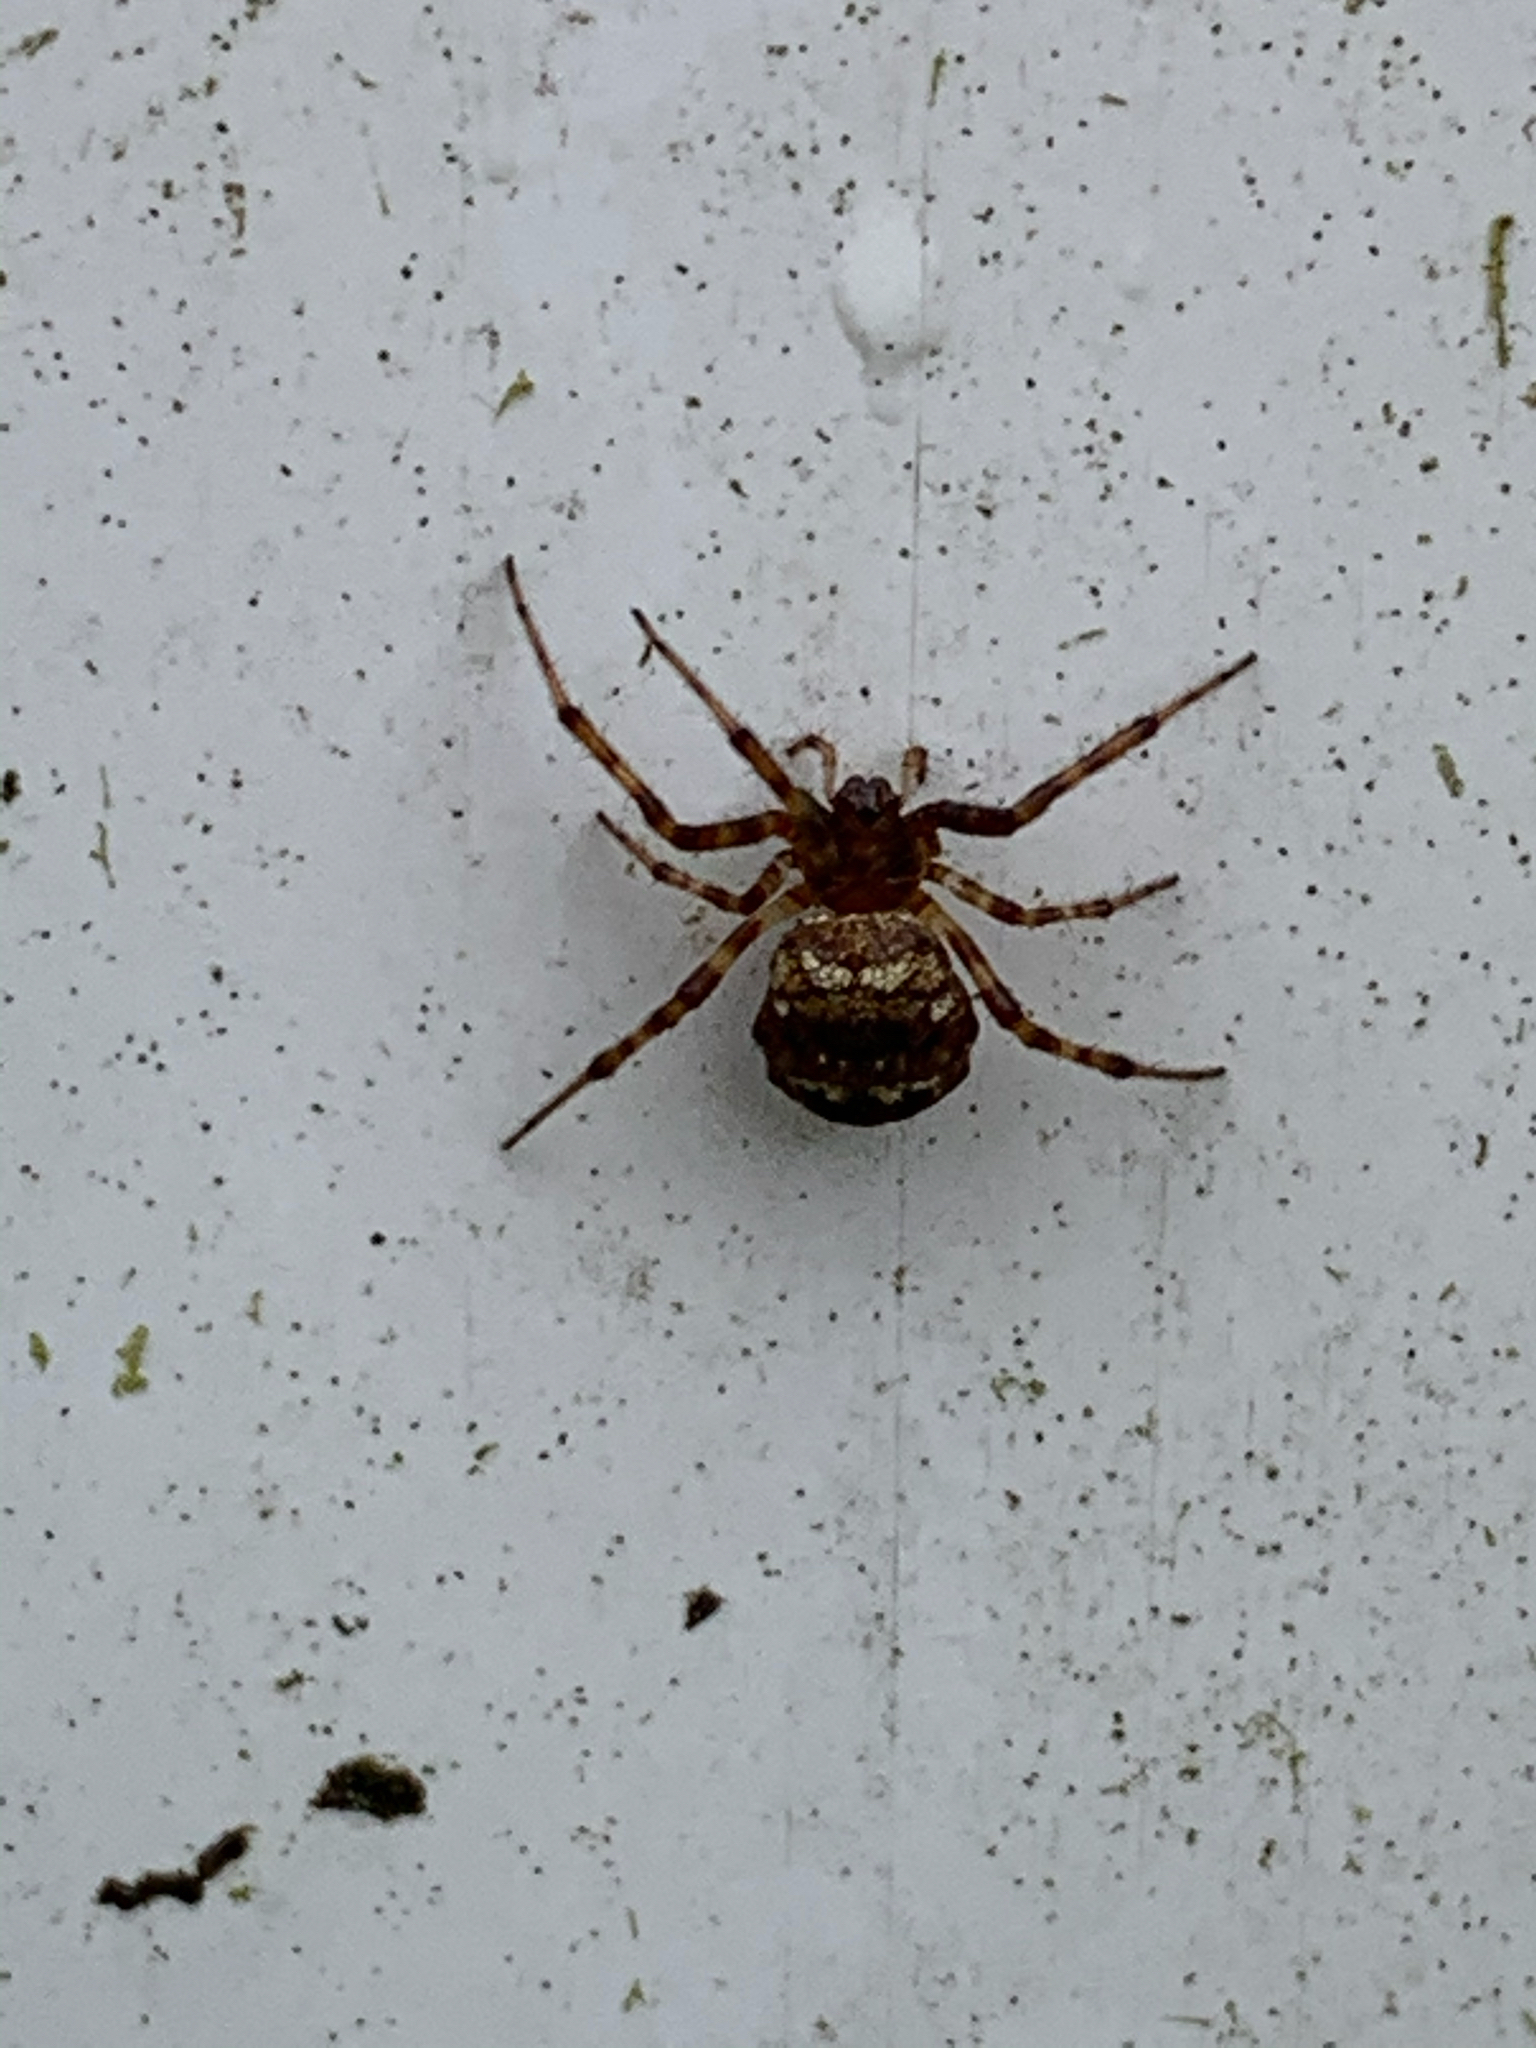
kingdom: Animalia
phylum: Arthropoda
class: Arachnida
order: Araneae
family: Araneidae
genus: Gea
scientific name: Gea heptagon
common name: Orb weavers
